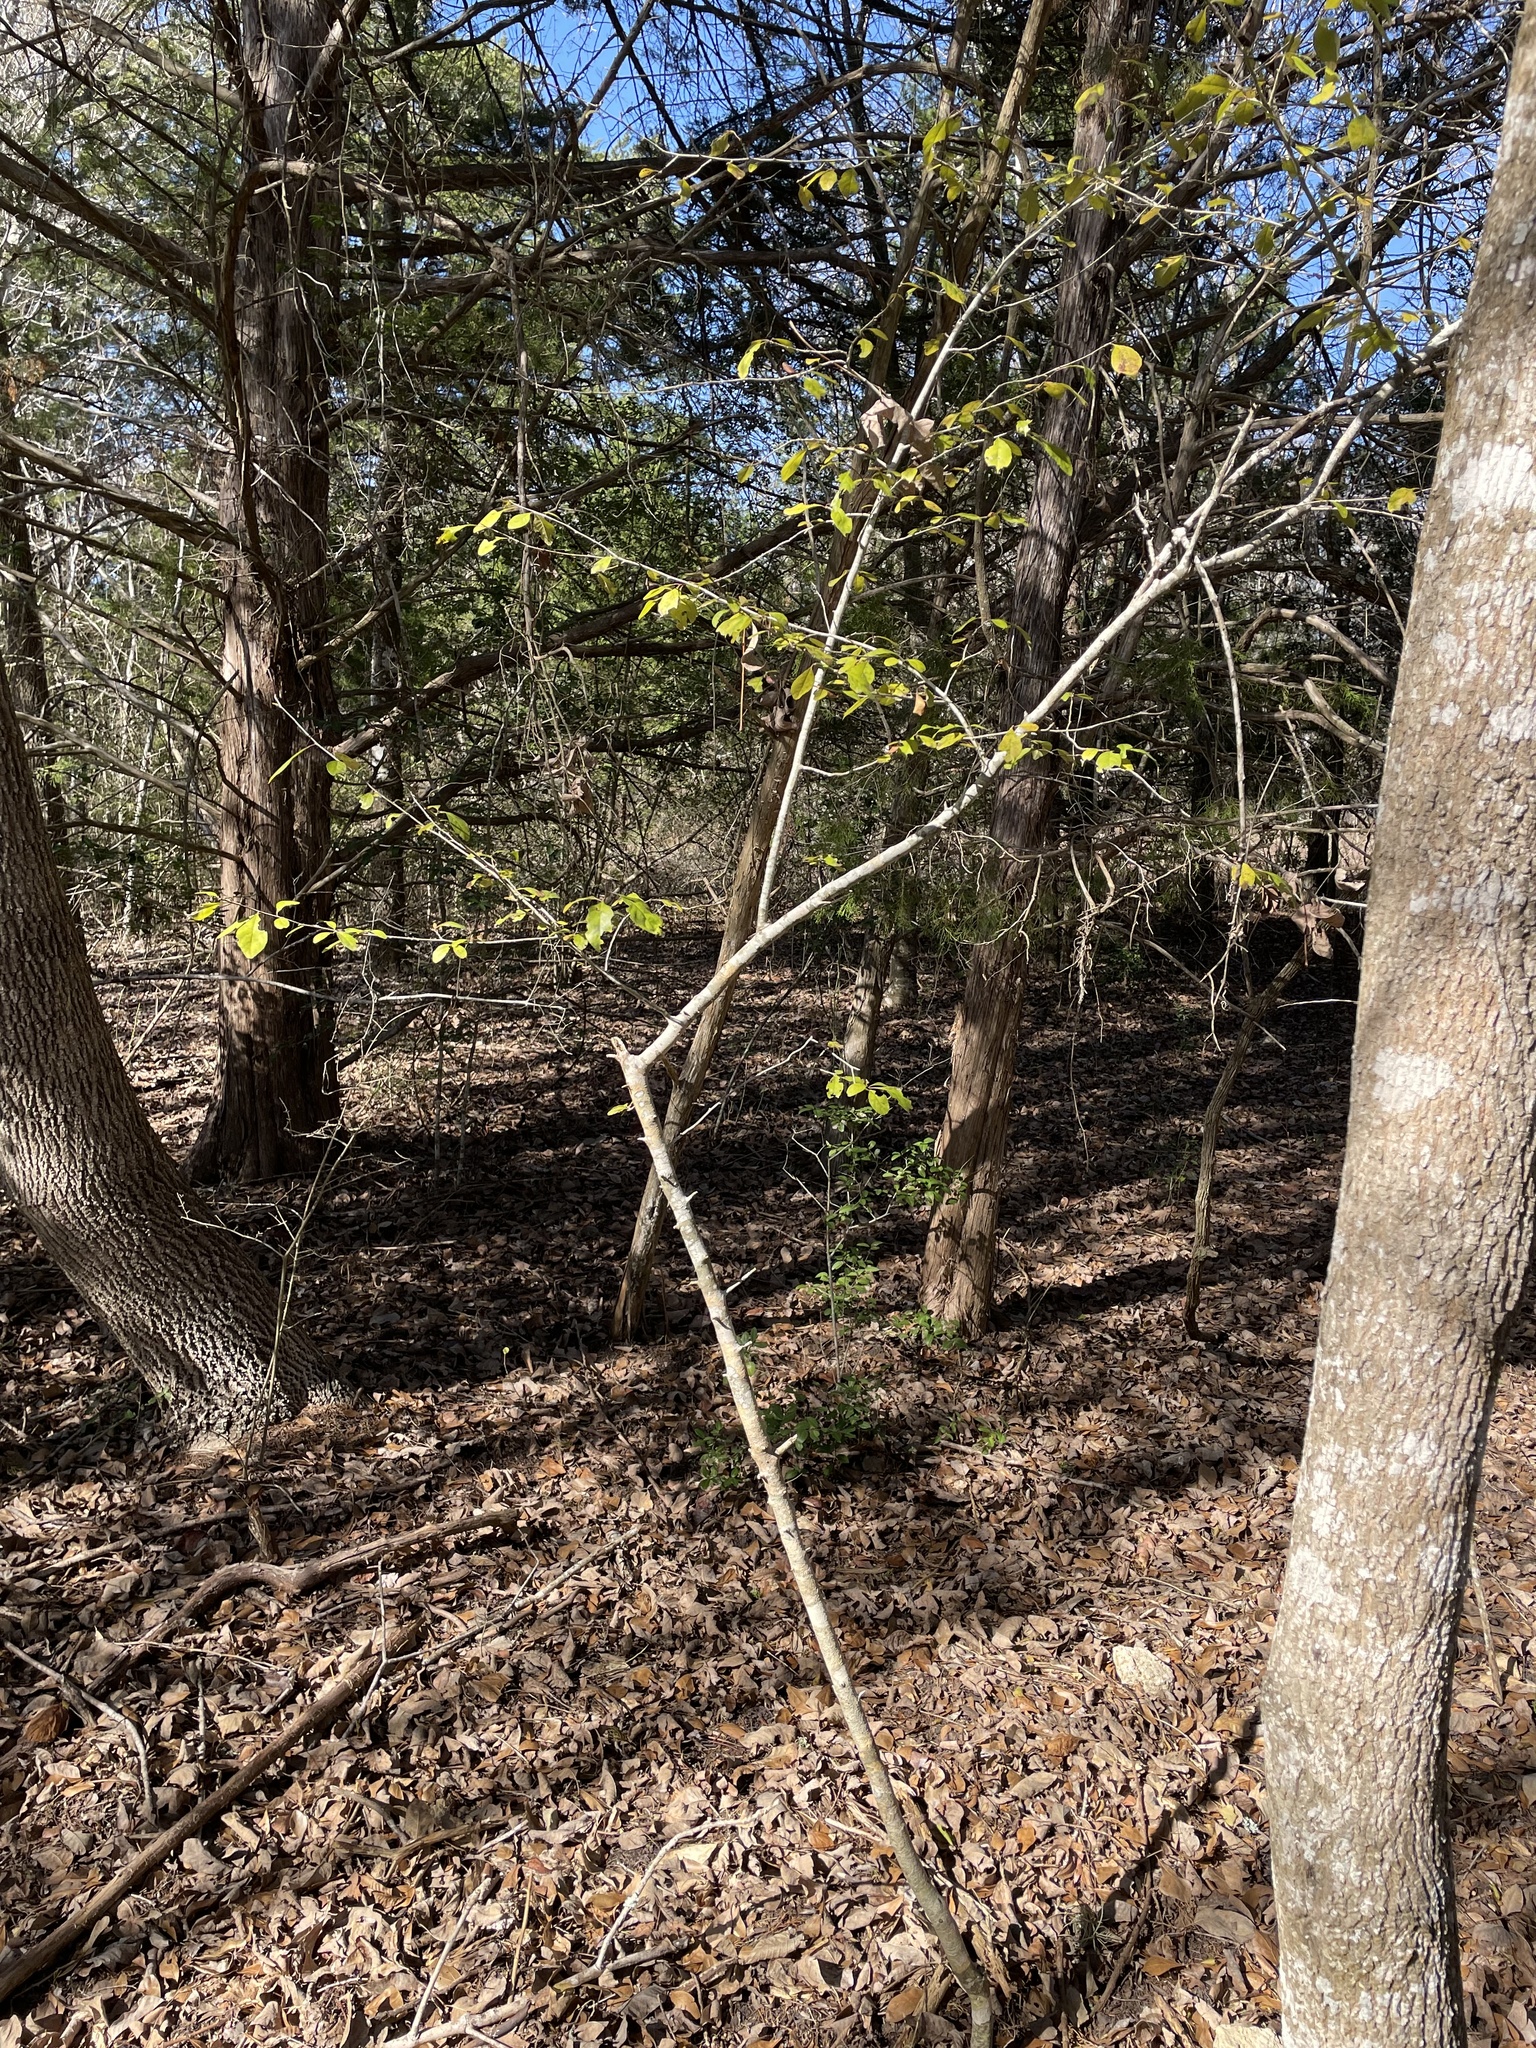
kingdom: Plantae
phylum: Tracheophyta
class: Magnoliopsida
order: Aquifoliales
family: Aquifoliaceae
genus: Ilex
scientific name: Ilex decidua
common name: Possum-haw
